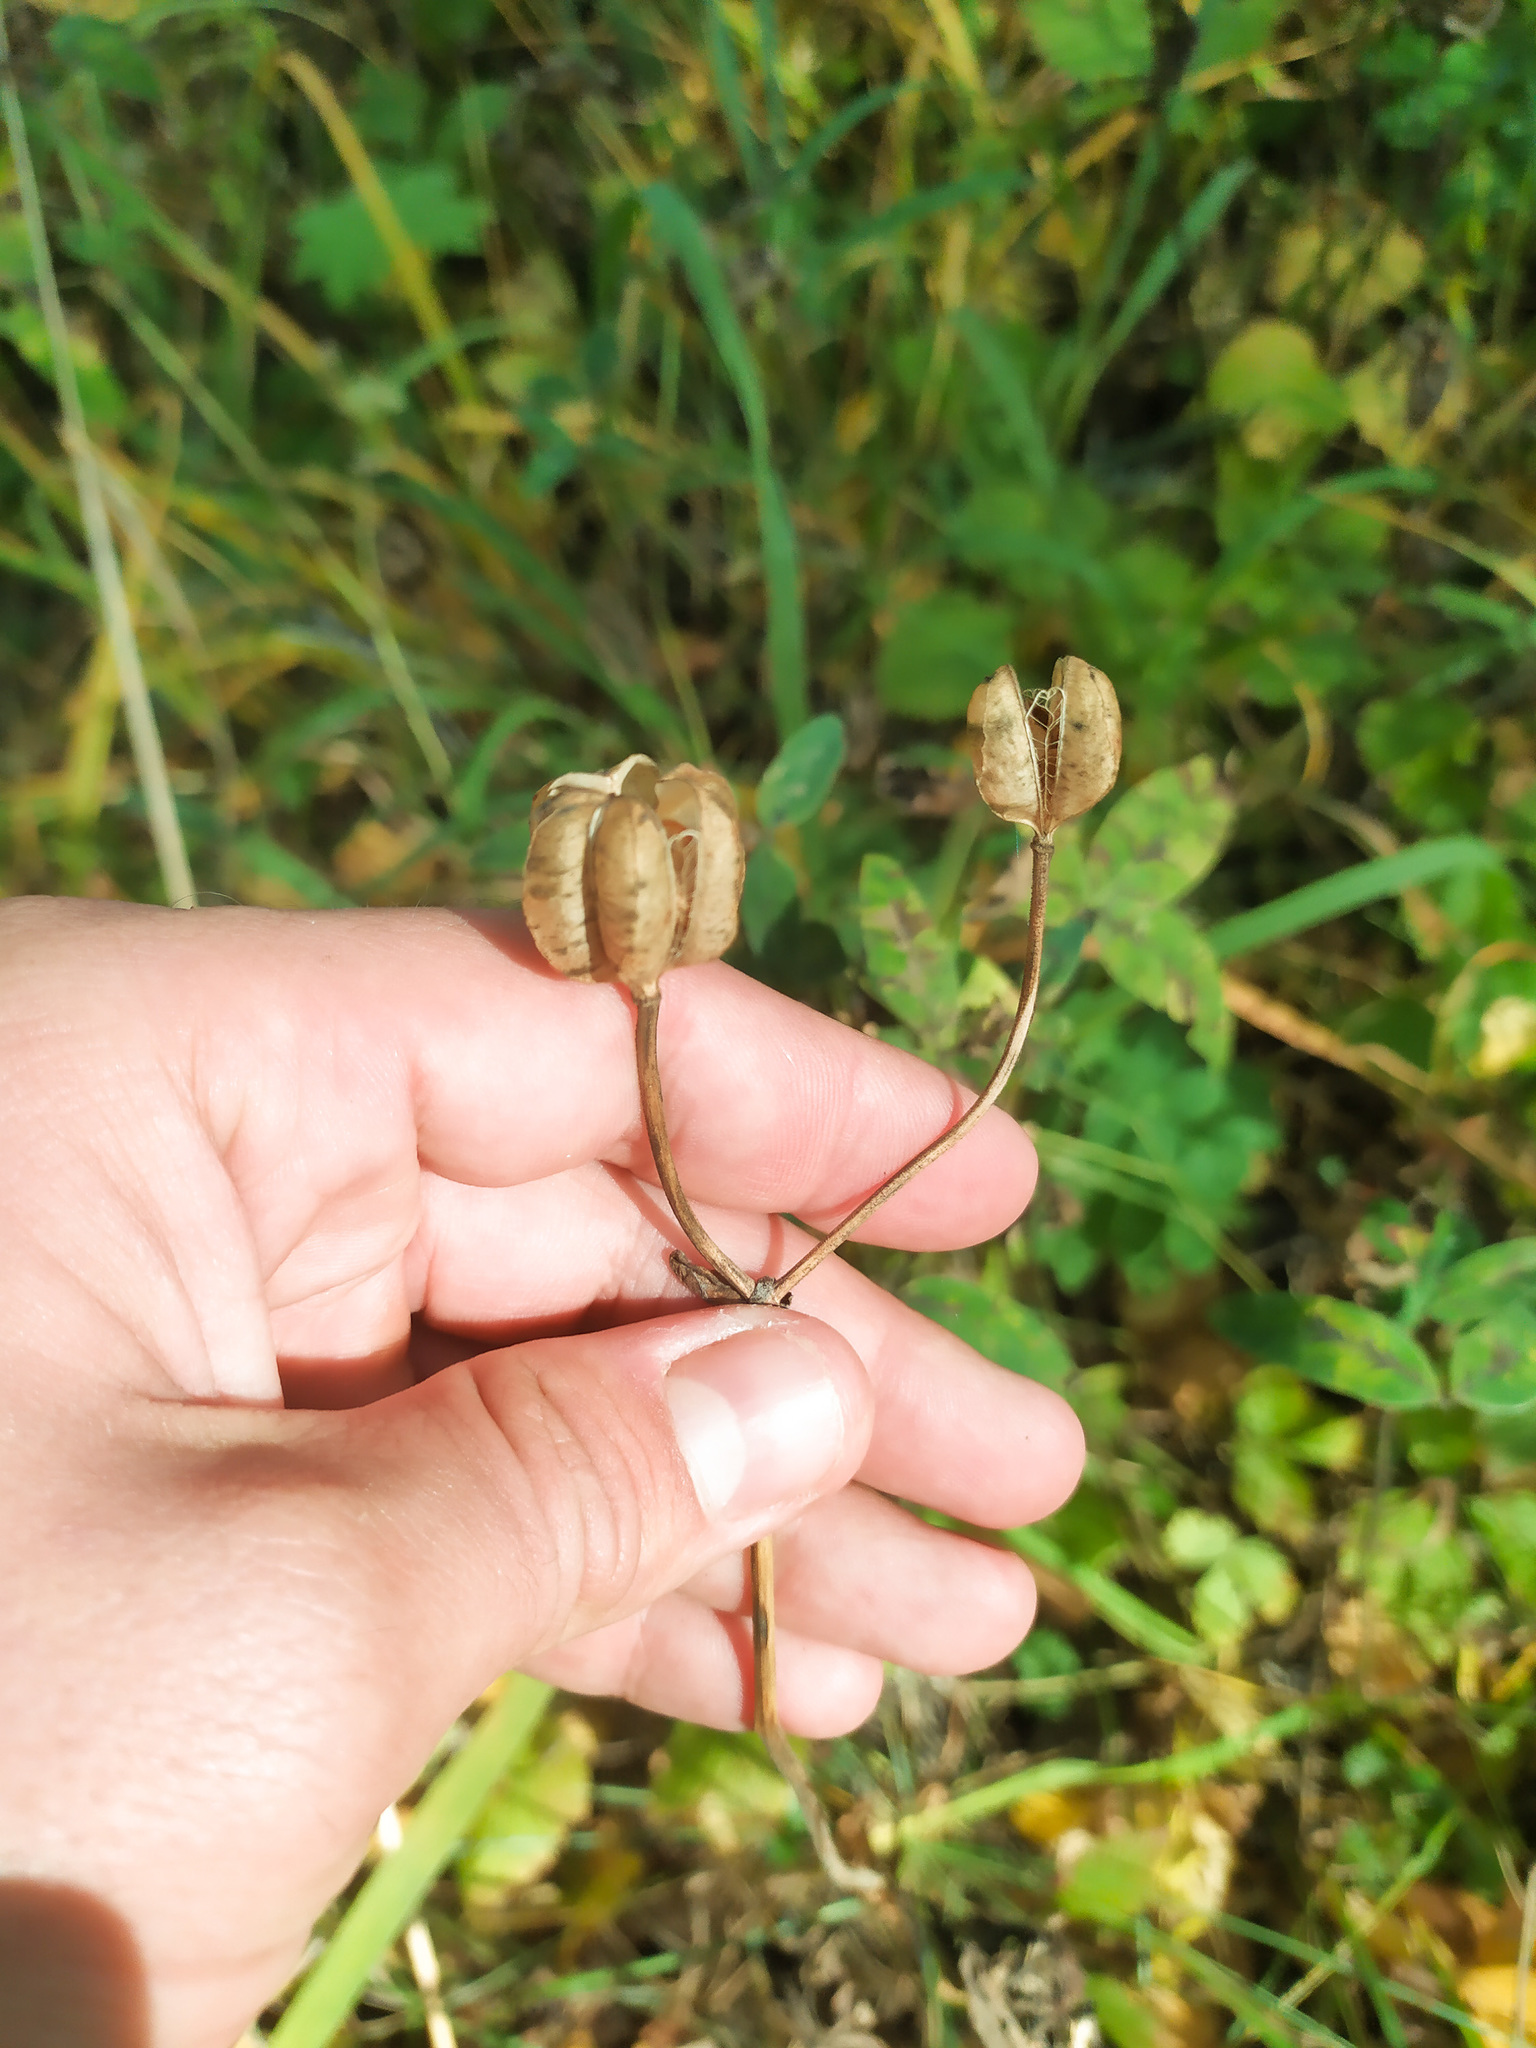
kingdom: Plantae
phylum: Tracheophyta
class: Liliopsida
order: Liliales
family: Liliaceae
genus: Lilium
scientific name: Lilium martagon
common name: Martagon lily
